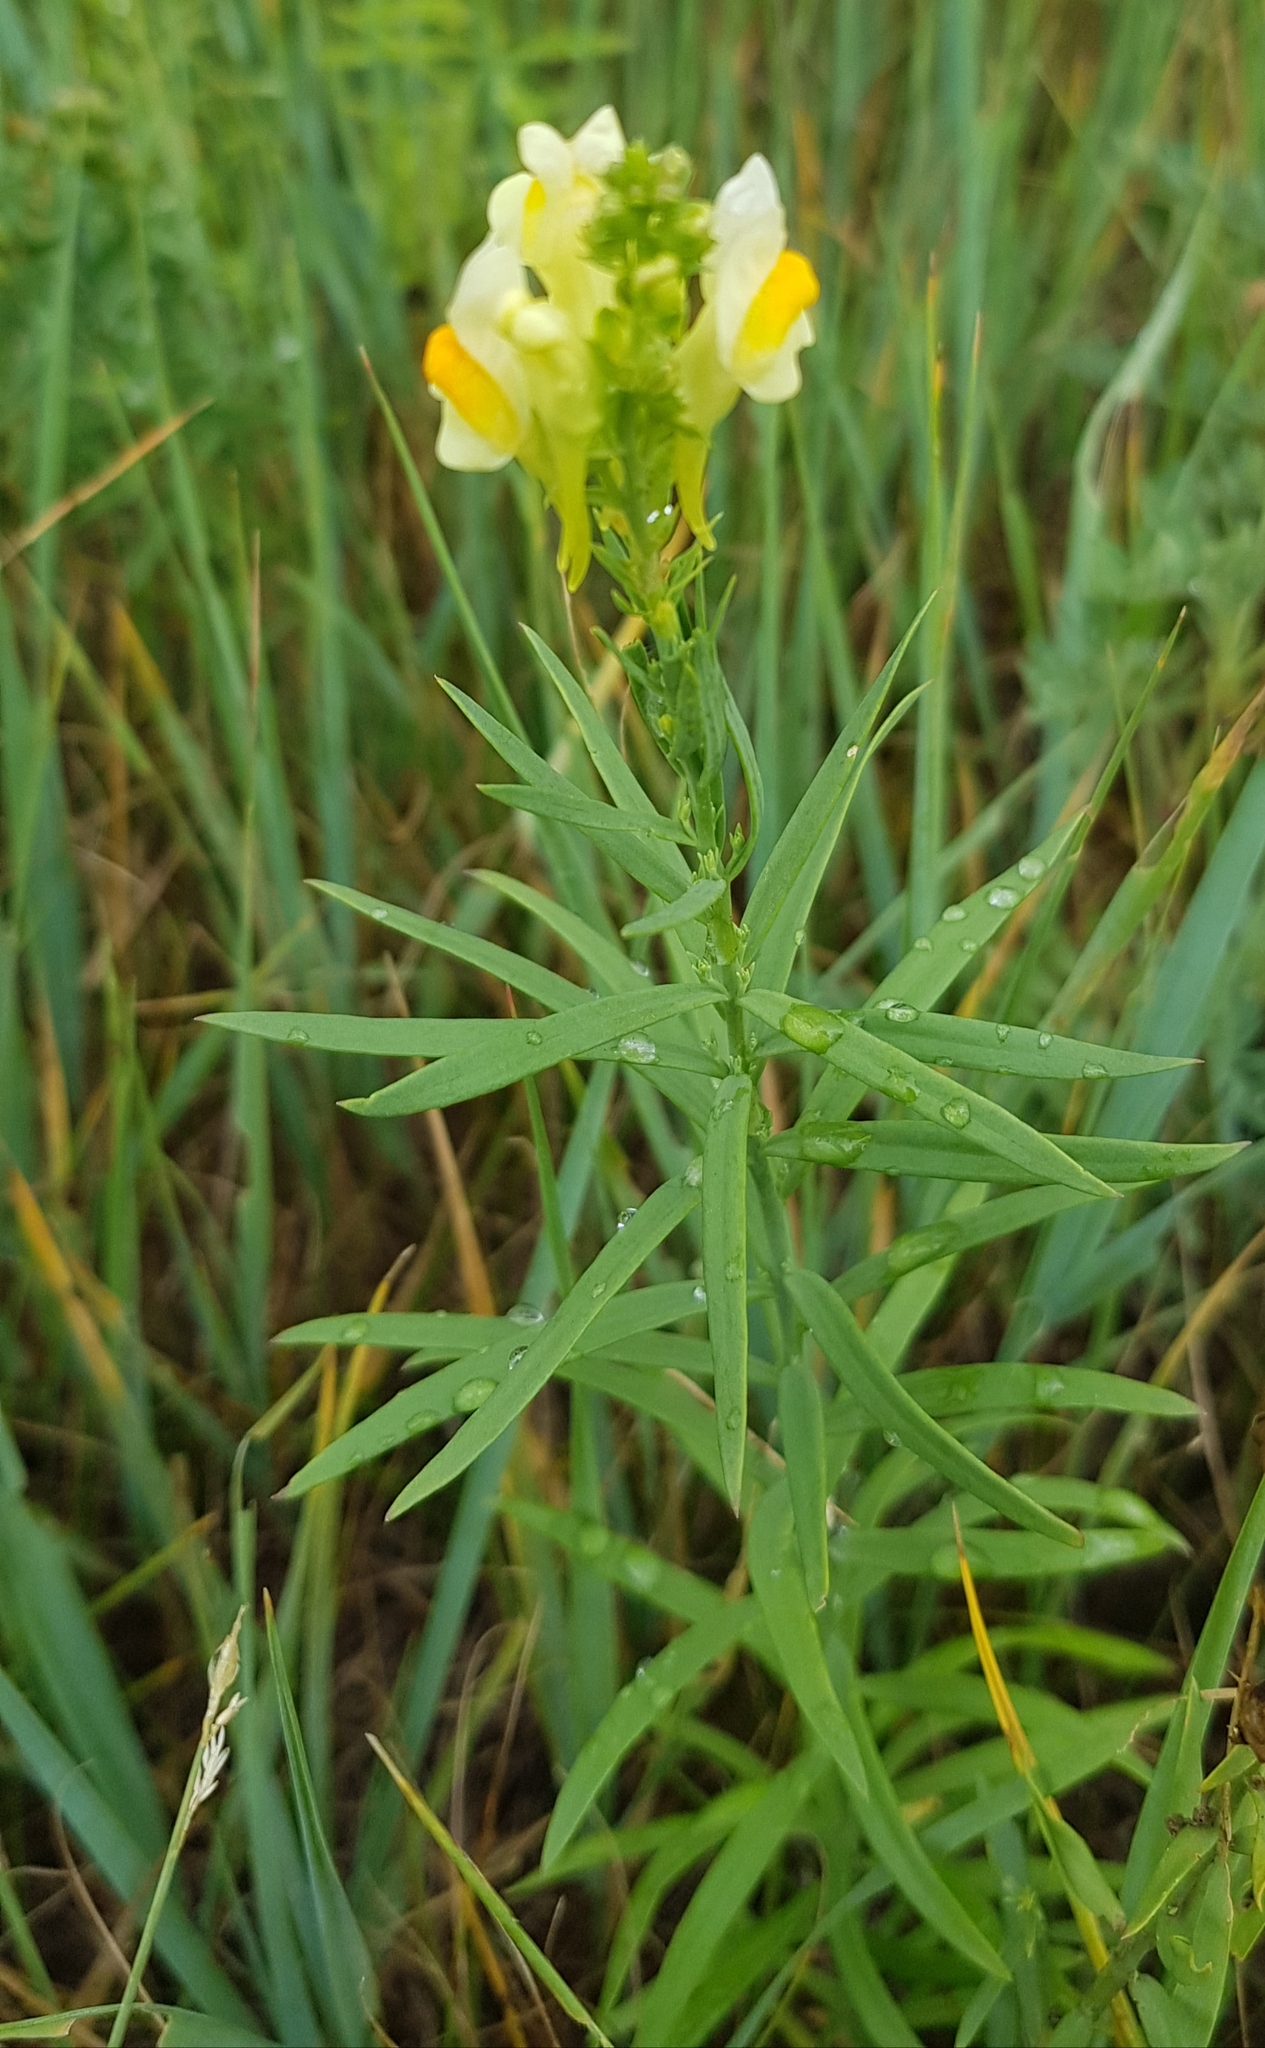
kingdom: Plantae
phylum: Tracheophyta
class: Magnoliopsida
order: Lamiales
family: Plantaginaceae
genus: Linaria
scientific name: Linaria vulgaris
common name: Butter and eggs
